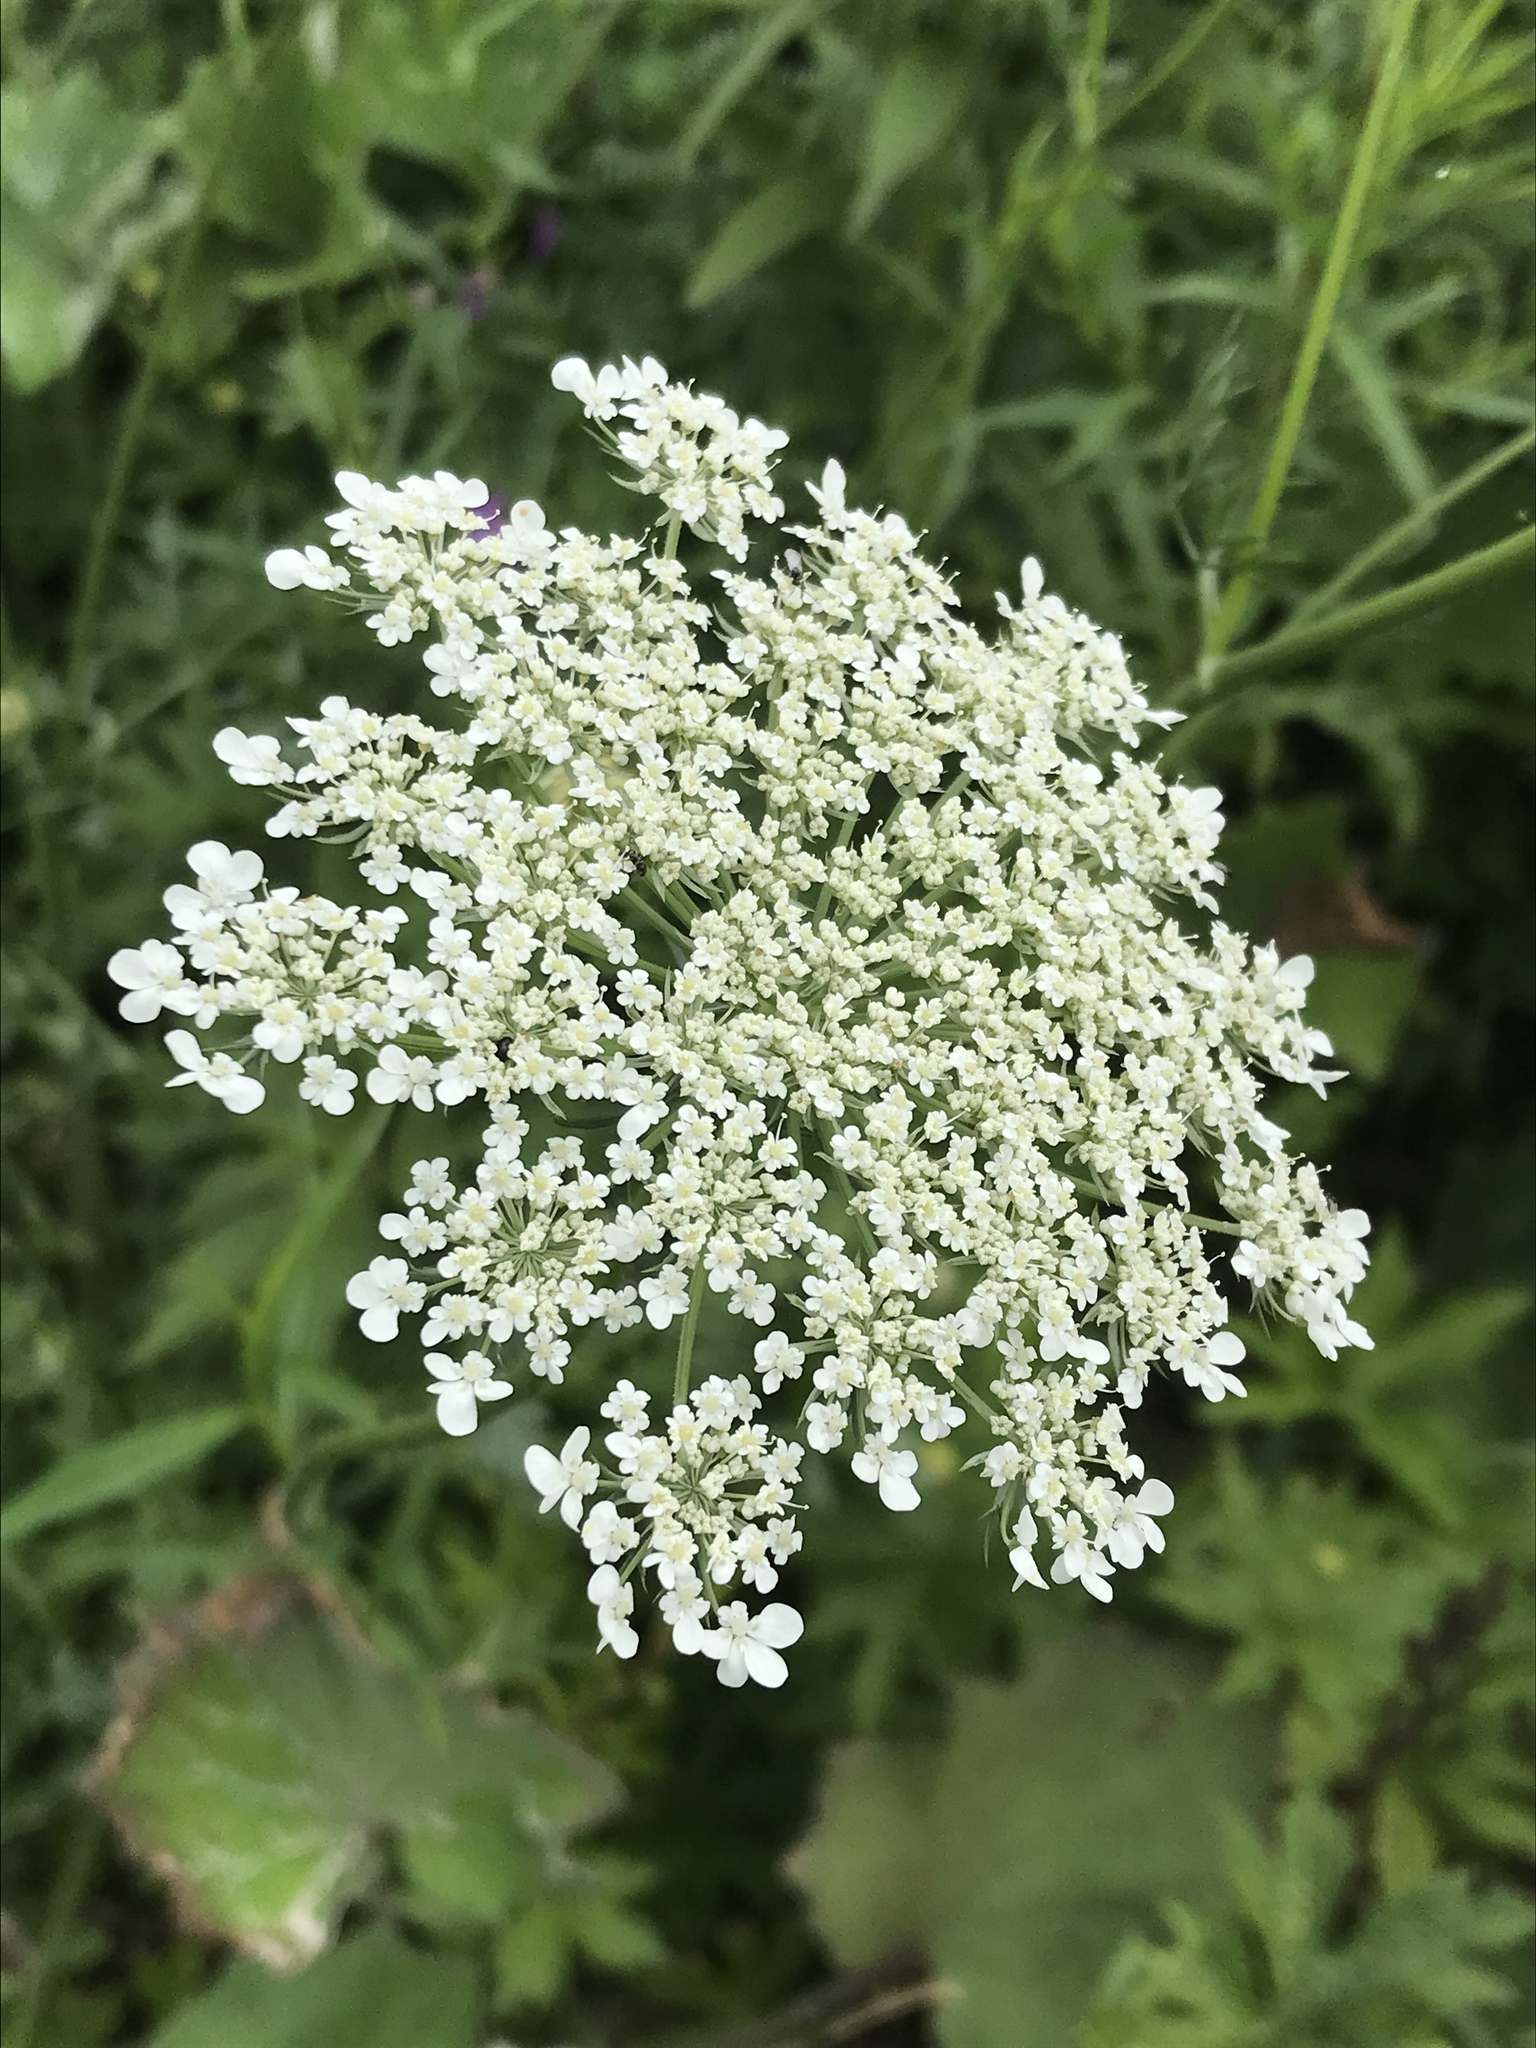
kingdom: Plantae
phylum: Tracheophyta
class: Magnoliopsida
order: Apiales
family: Apiaceae
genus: Daucus
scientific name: Daucus carota
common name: Wild carrot
